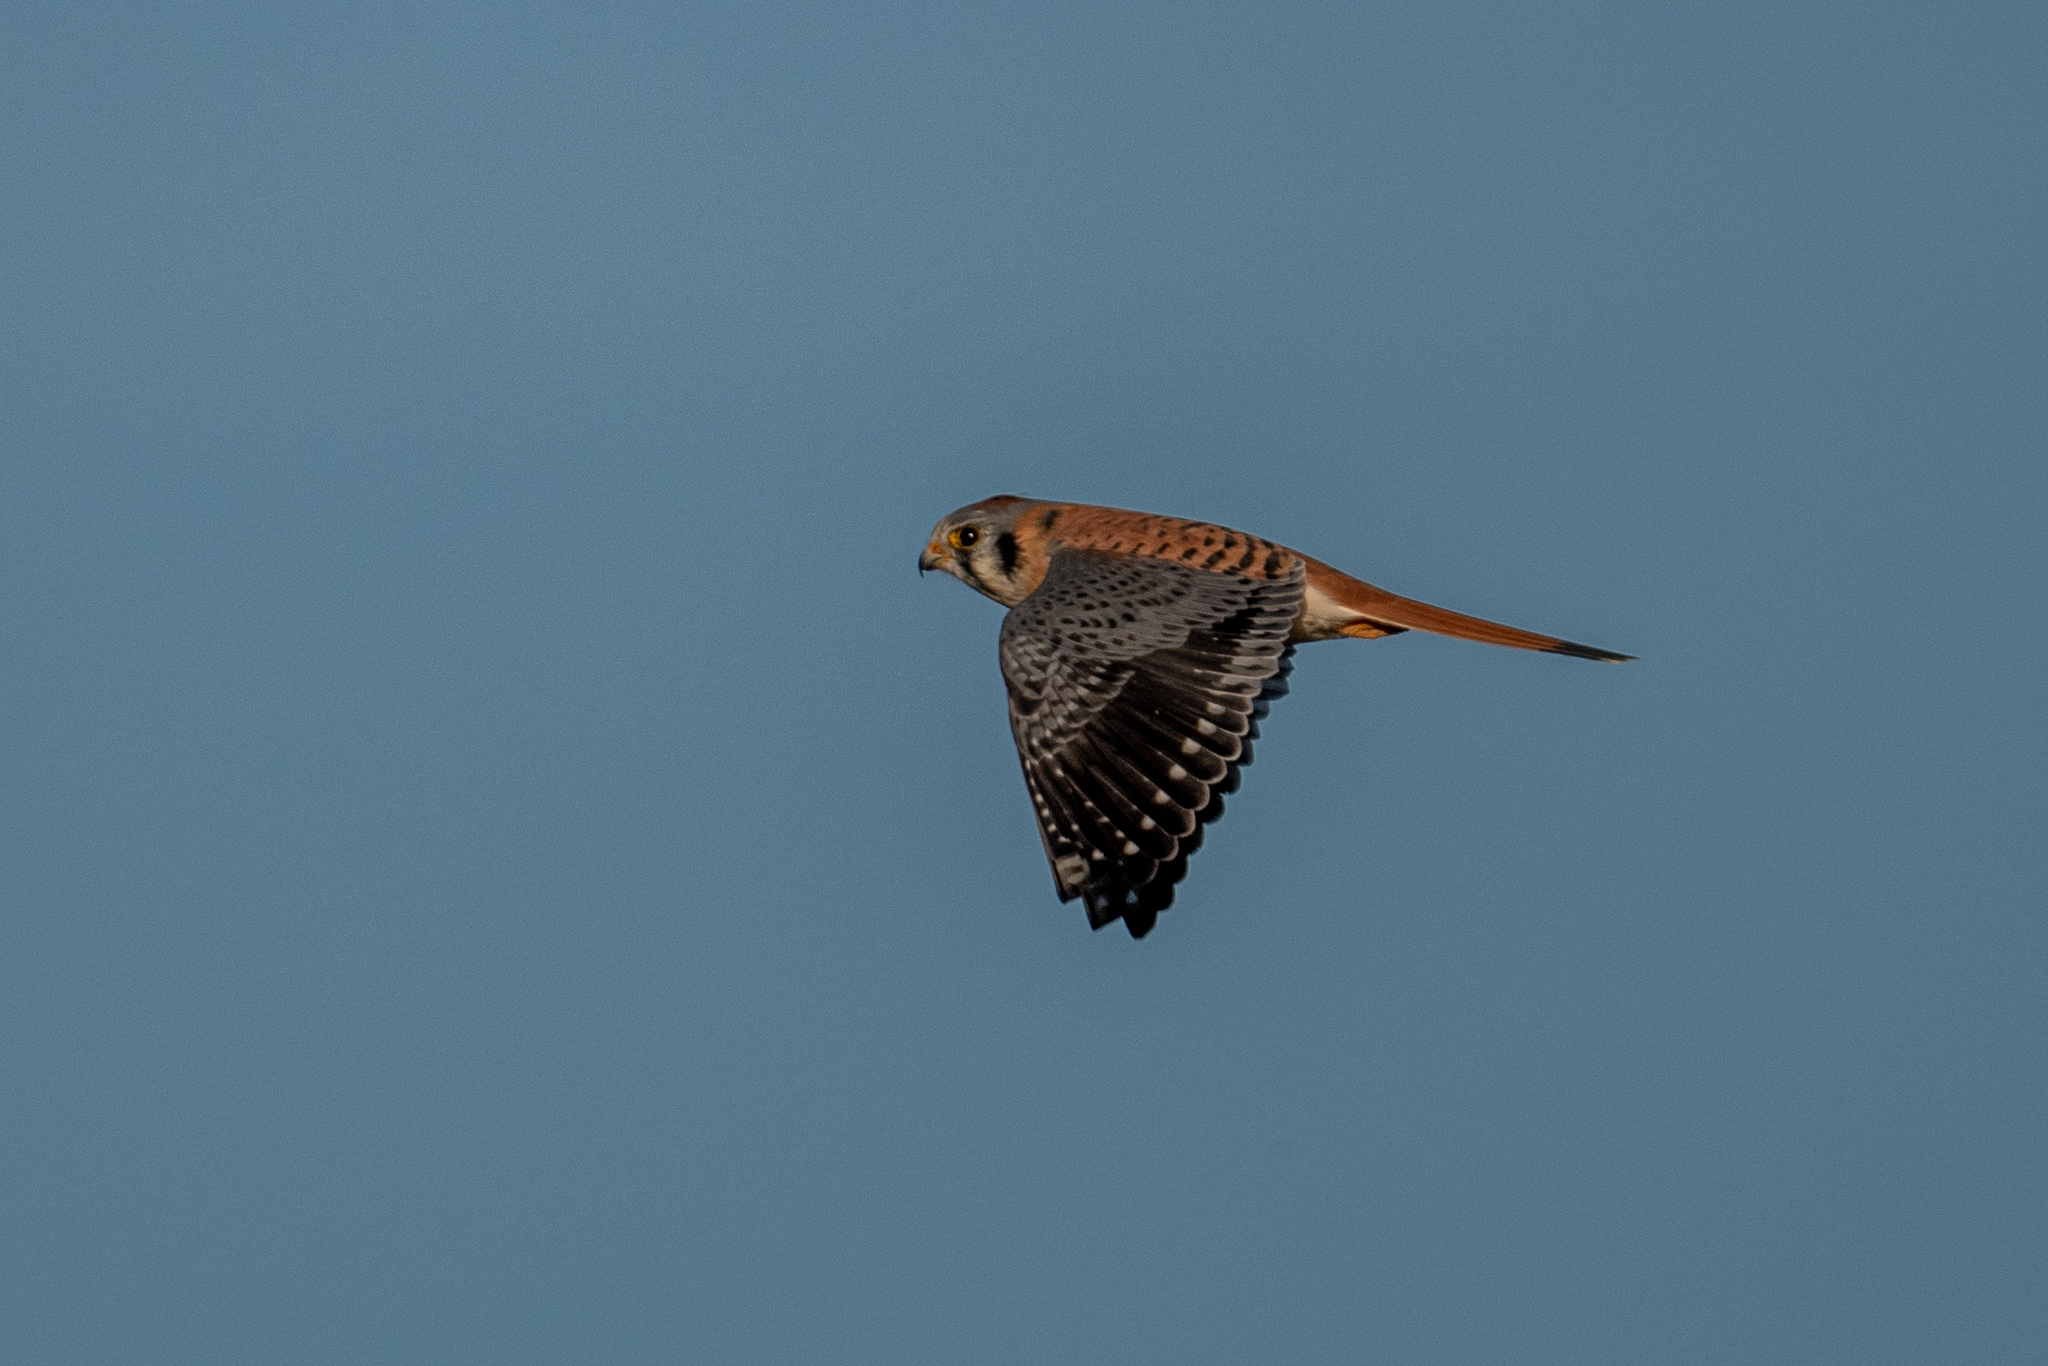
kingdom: Animalia
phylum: Chordata
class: Aves
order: Falconiformes
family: Falconidae
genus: Falco
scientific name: Falco sparverius
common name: American kestrel
